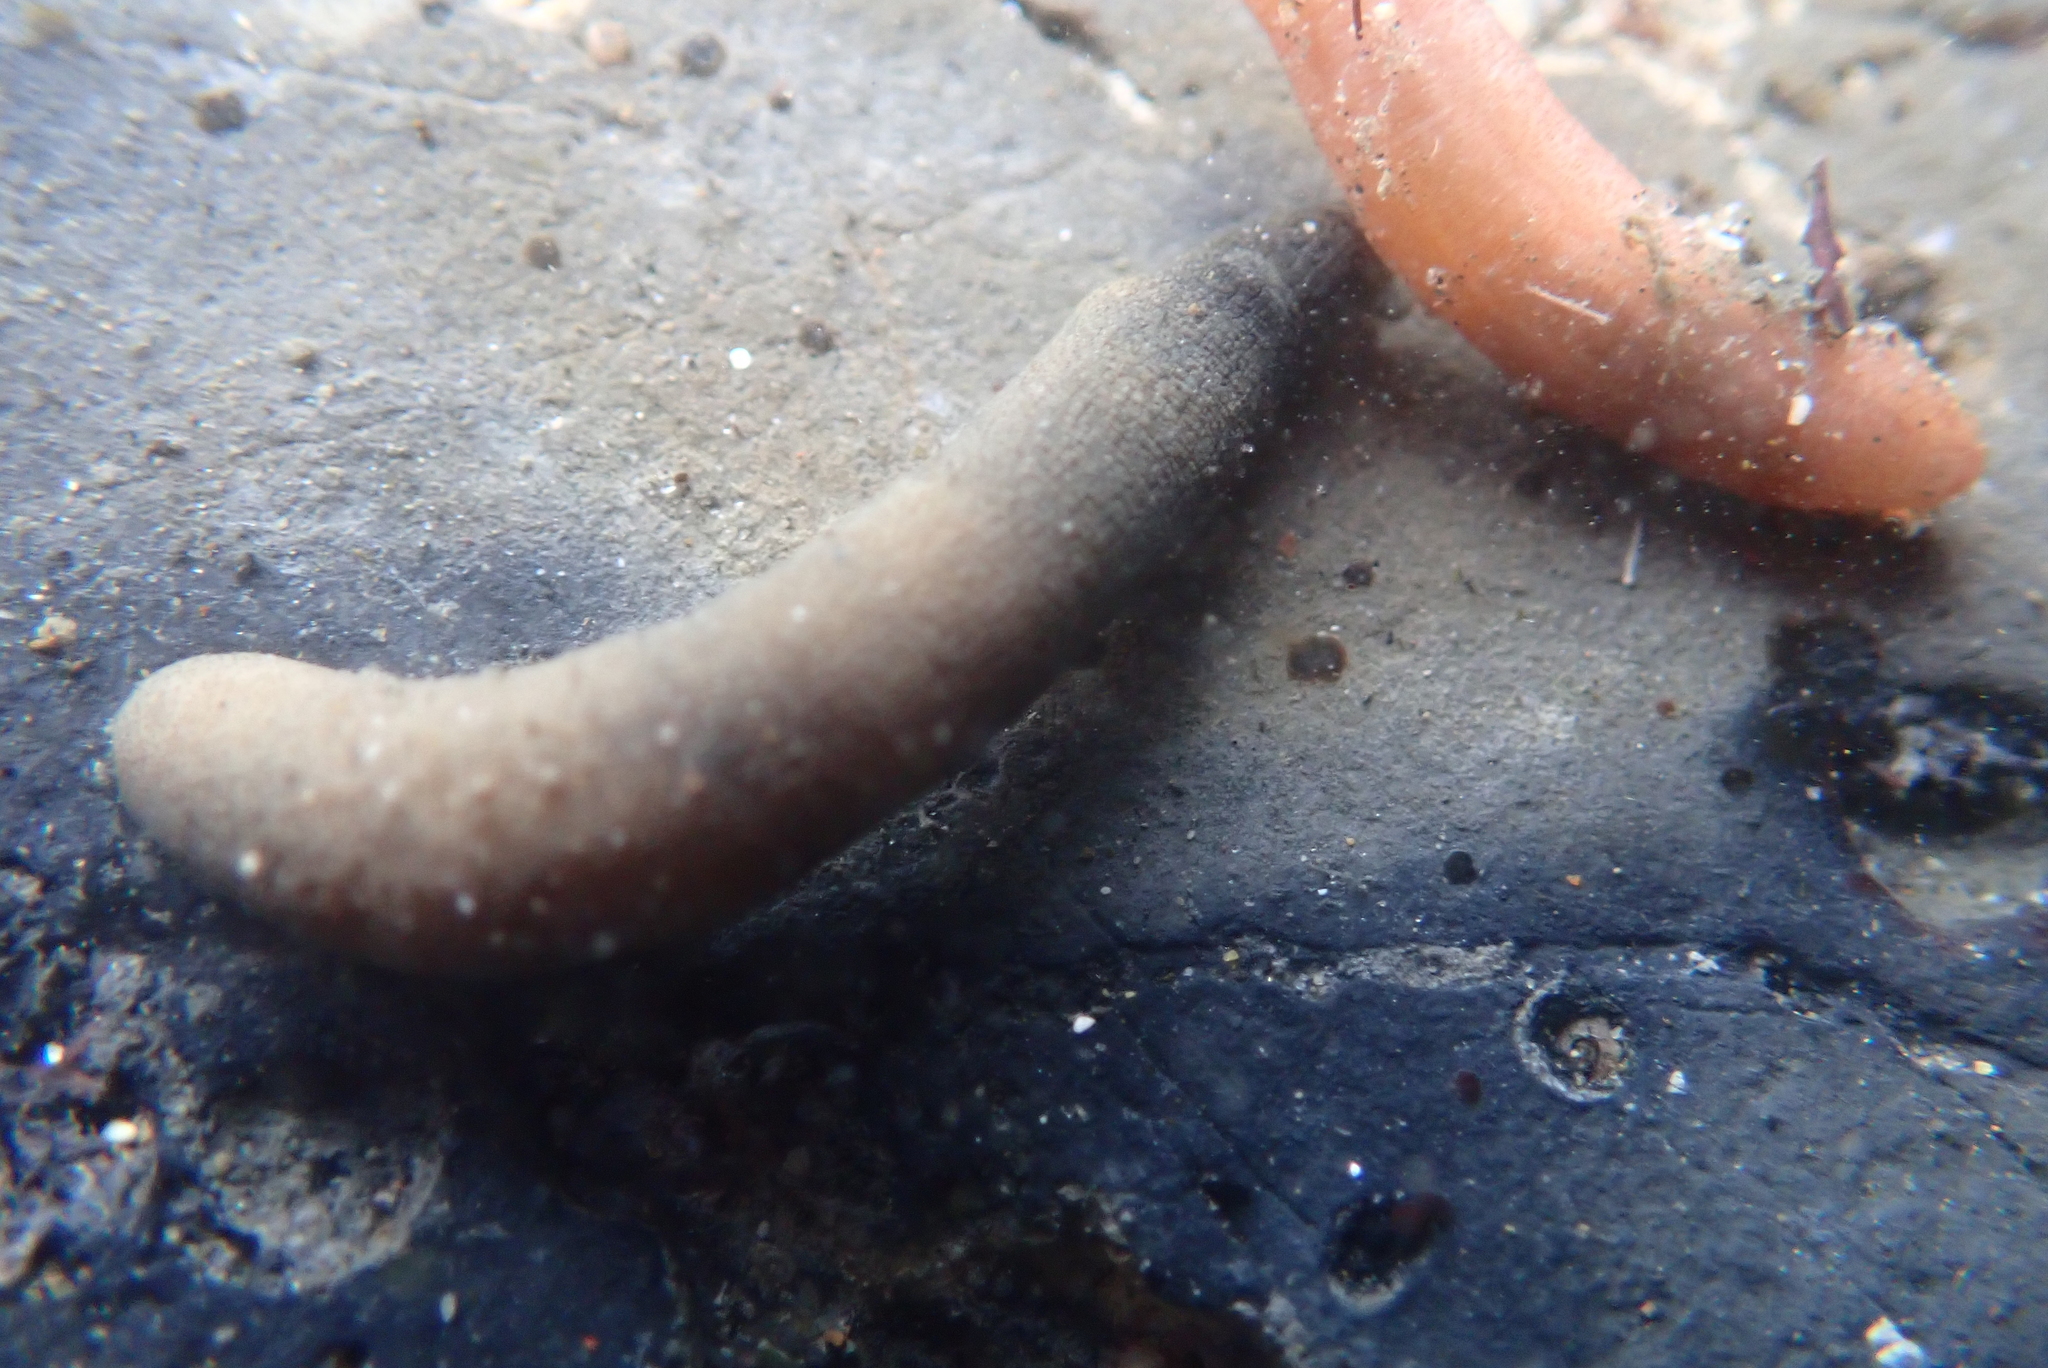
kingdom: Animalia
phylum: Sipuncula
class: Phascolosomatidea
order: Phascolosomatiformes
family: Phascolosomatidae
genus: Phascolosoma
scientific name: Phascolosoma agassizii
